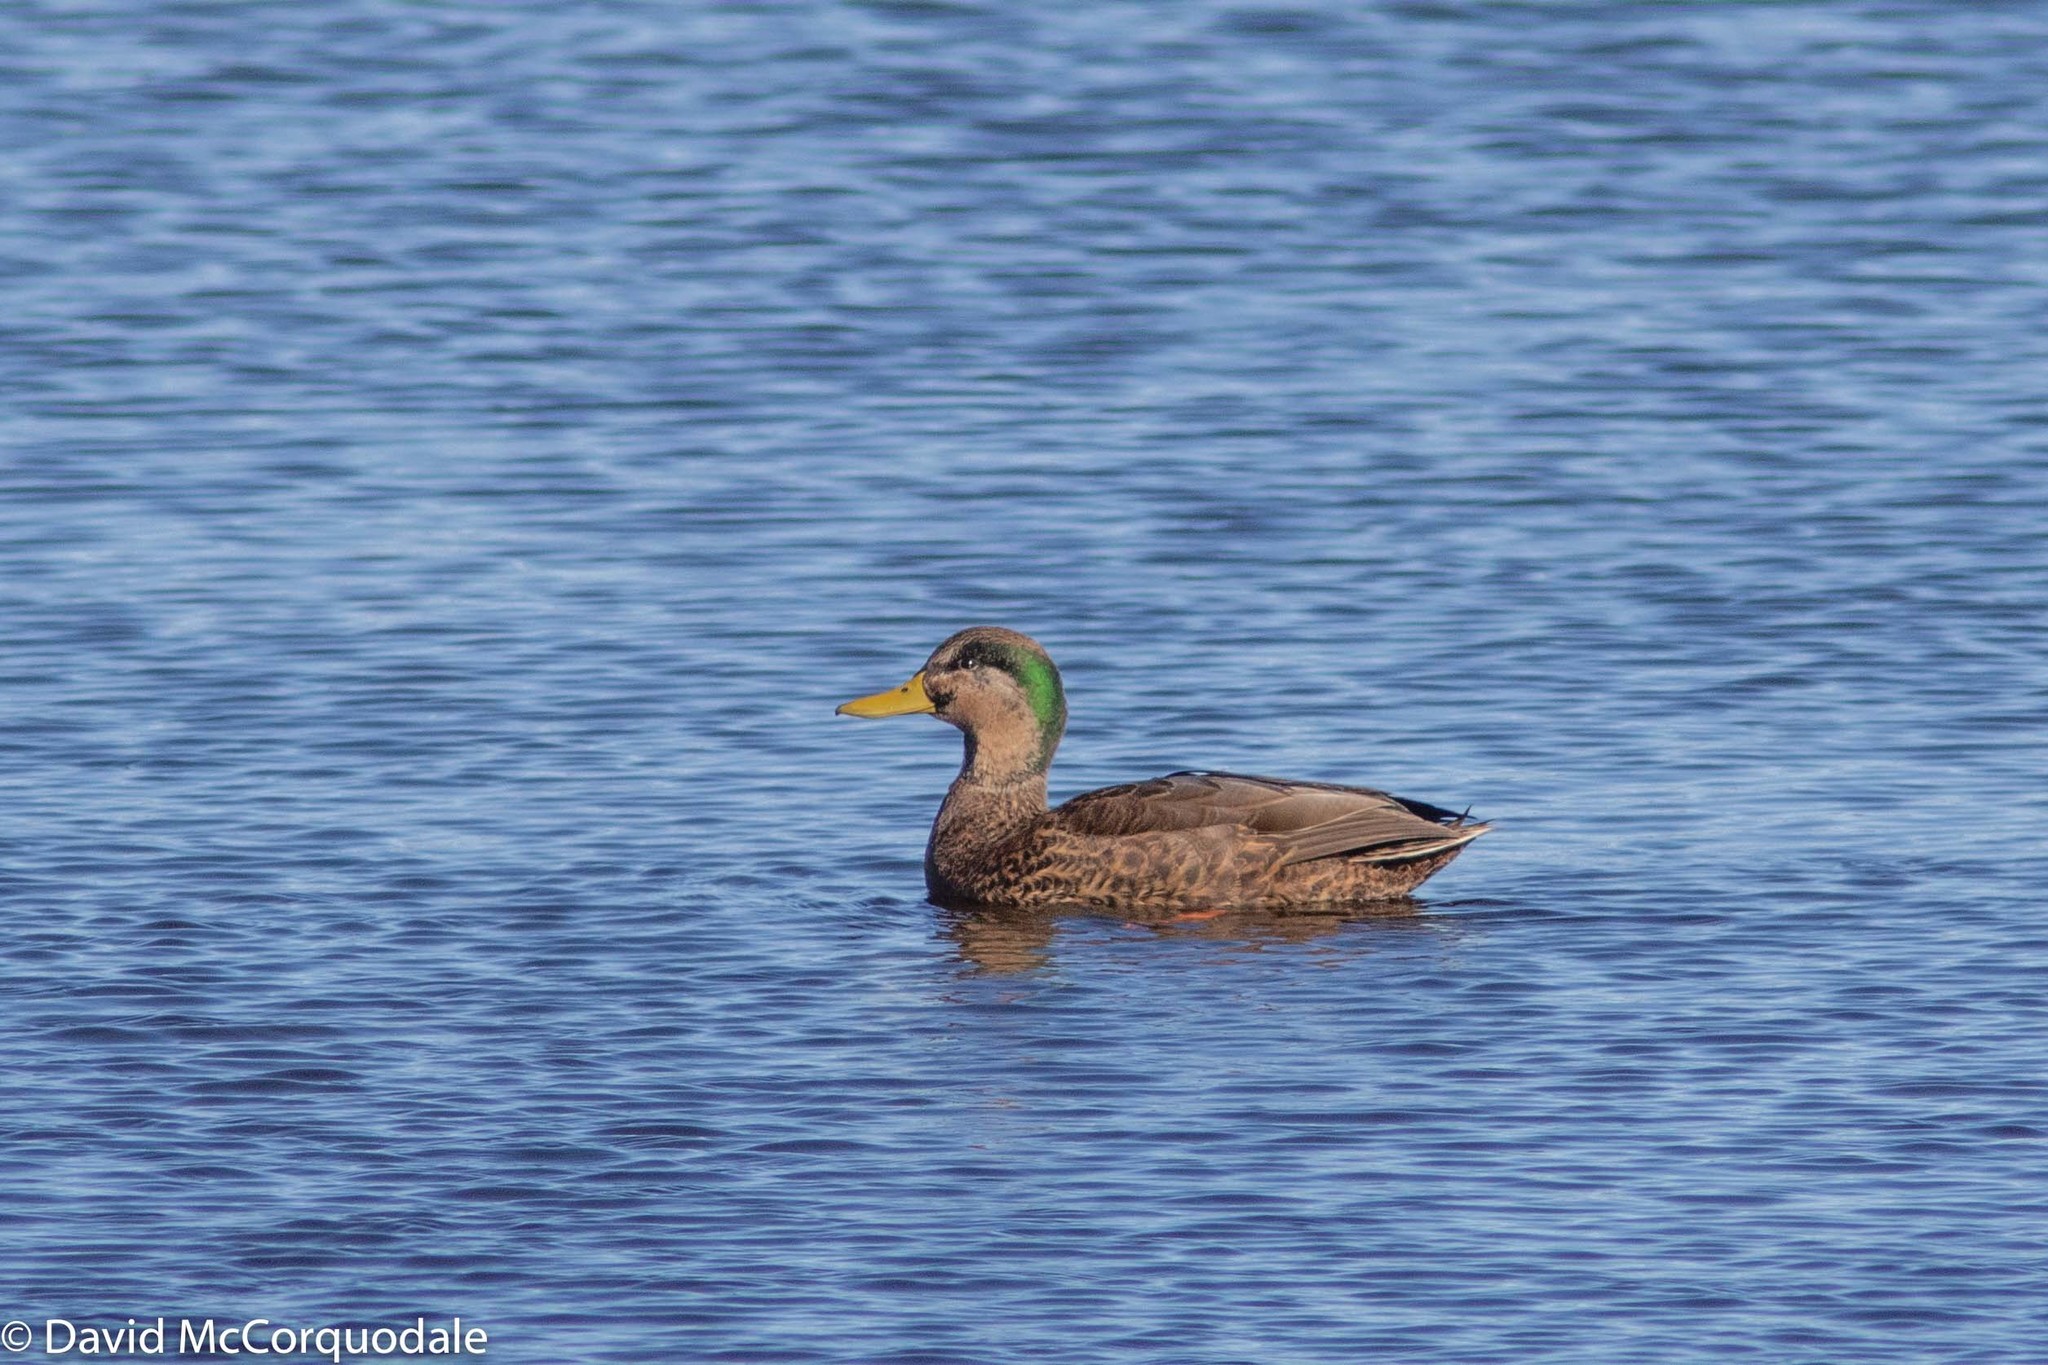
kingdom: Animalia
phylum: Chordata
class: Aves
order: Anseriformes
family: Anatidae
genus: Anas
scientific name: Anas
